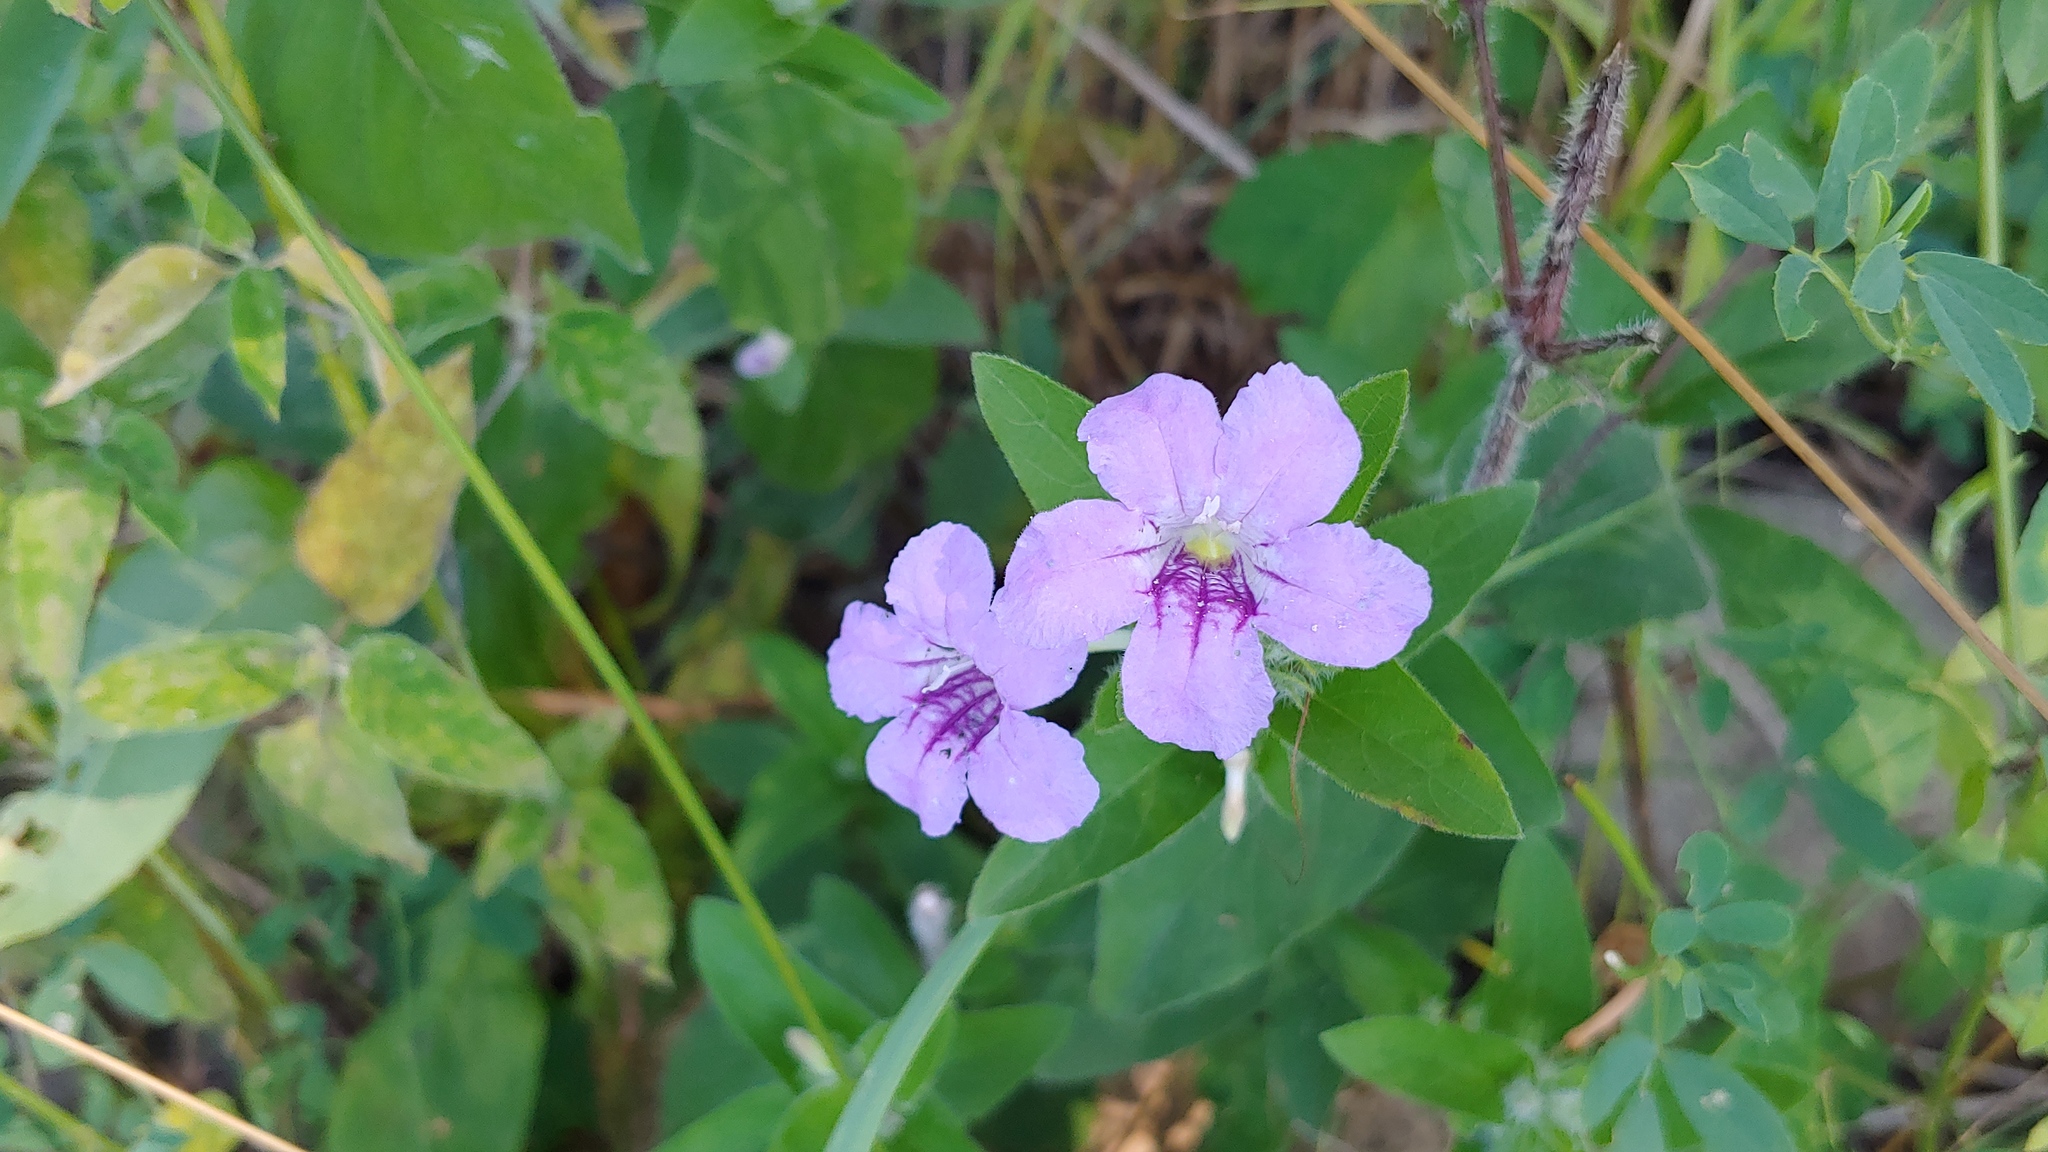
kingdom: Plantae
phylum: Tracheophyta
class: Magnoliopsida
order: Lamiales
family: Acanthaceae
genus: Ruellia
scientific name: Ruellia humilis
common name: Fringe-leaf ruellia
